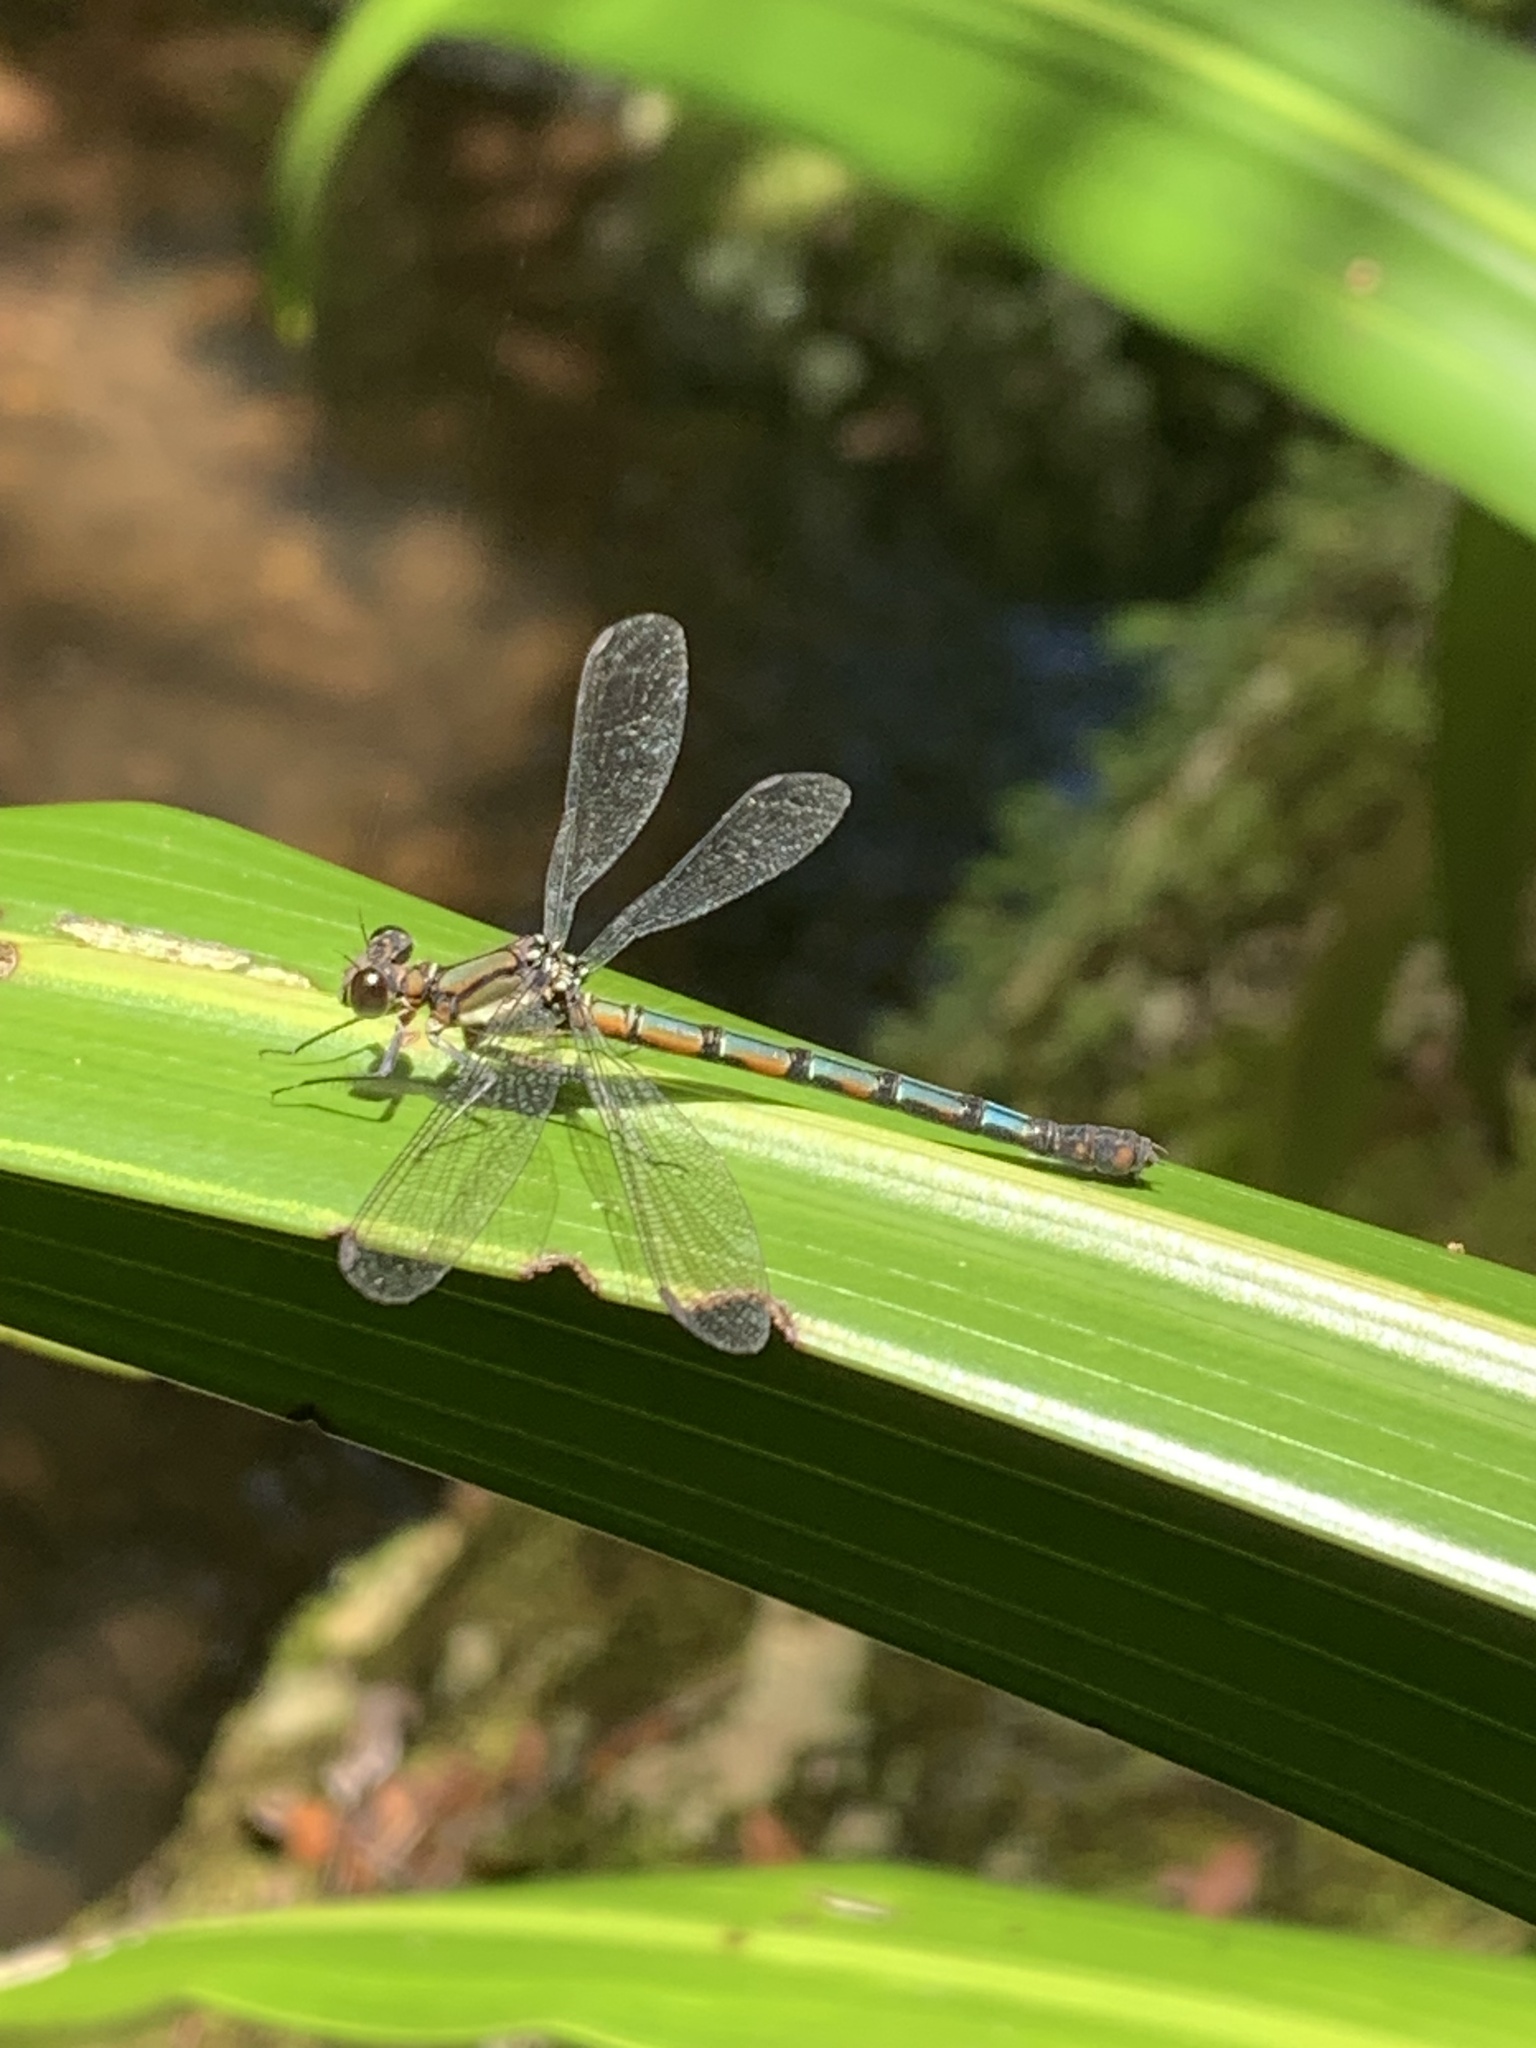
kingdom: Animalia
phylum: Arthropoda
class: Insecta
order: Odonata
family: Lestoideidae
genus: Diphlebia
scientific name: Diphlebia lestoides
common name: Whitewater rockmaster
